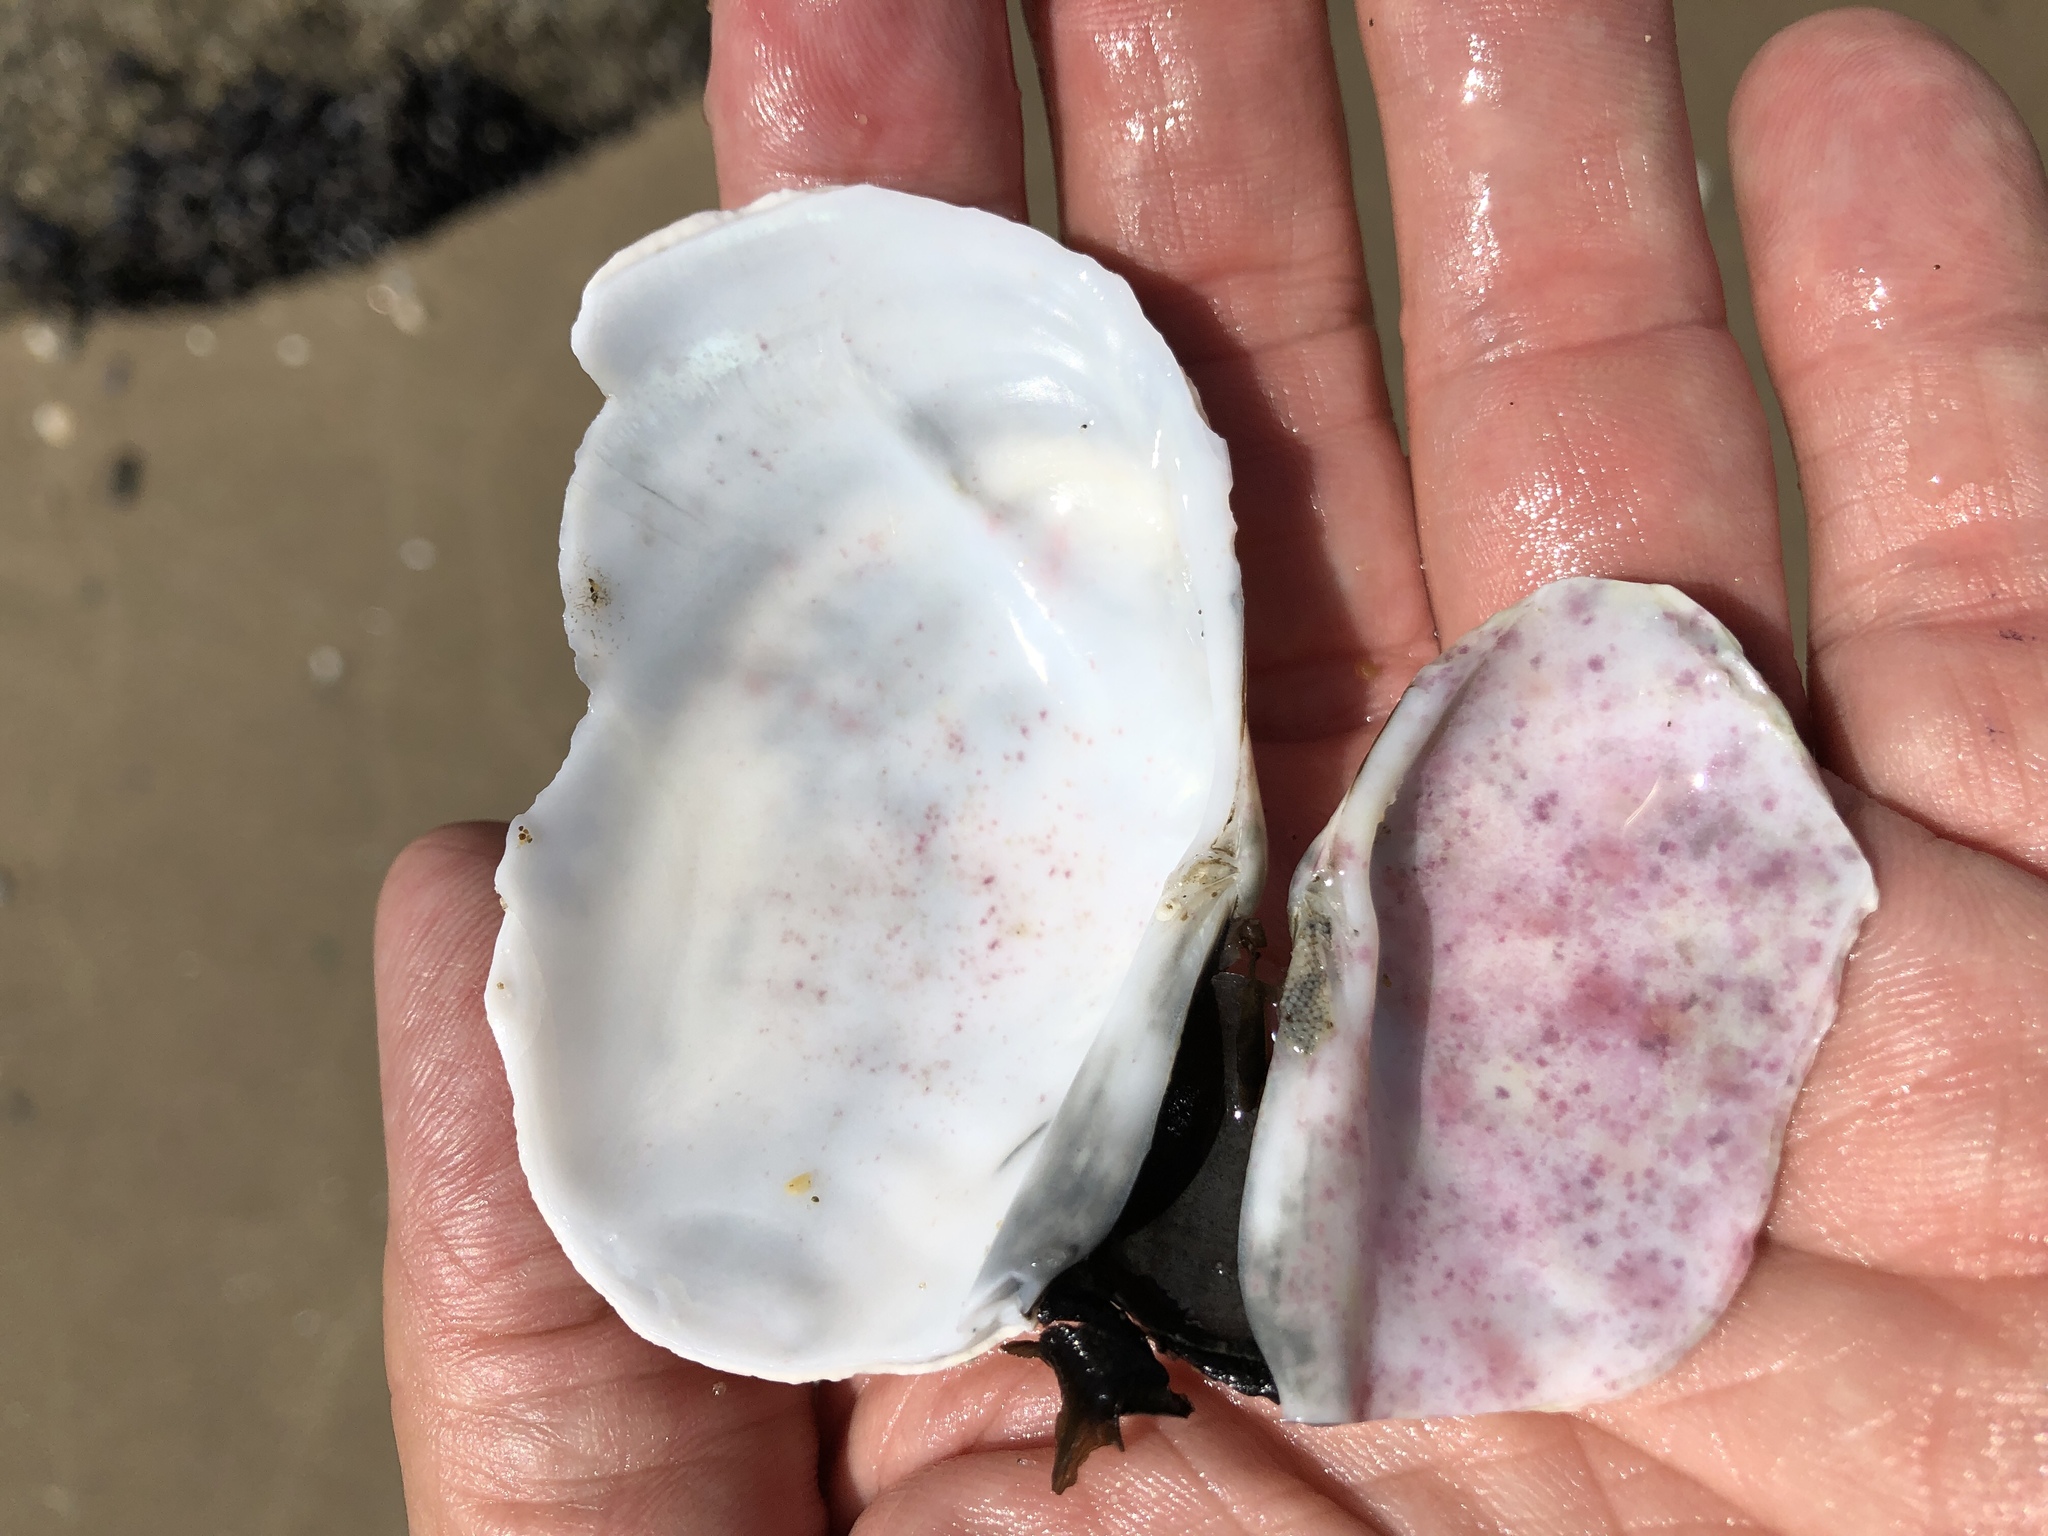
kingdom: Animalia
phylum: Mollusca
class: Bivalvia
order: Cardiida
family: Psammobiidae
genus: Gari
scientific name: Gari californica
